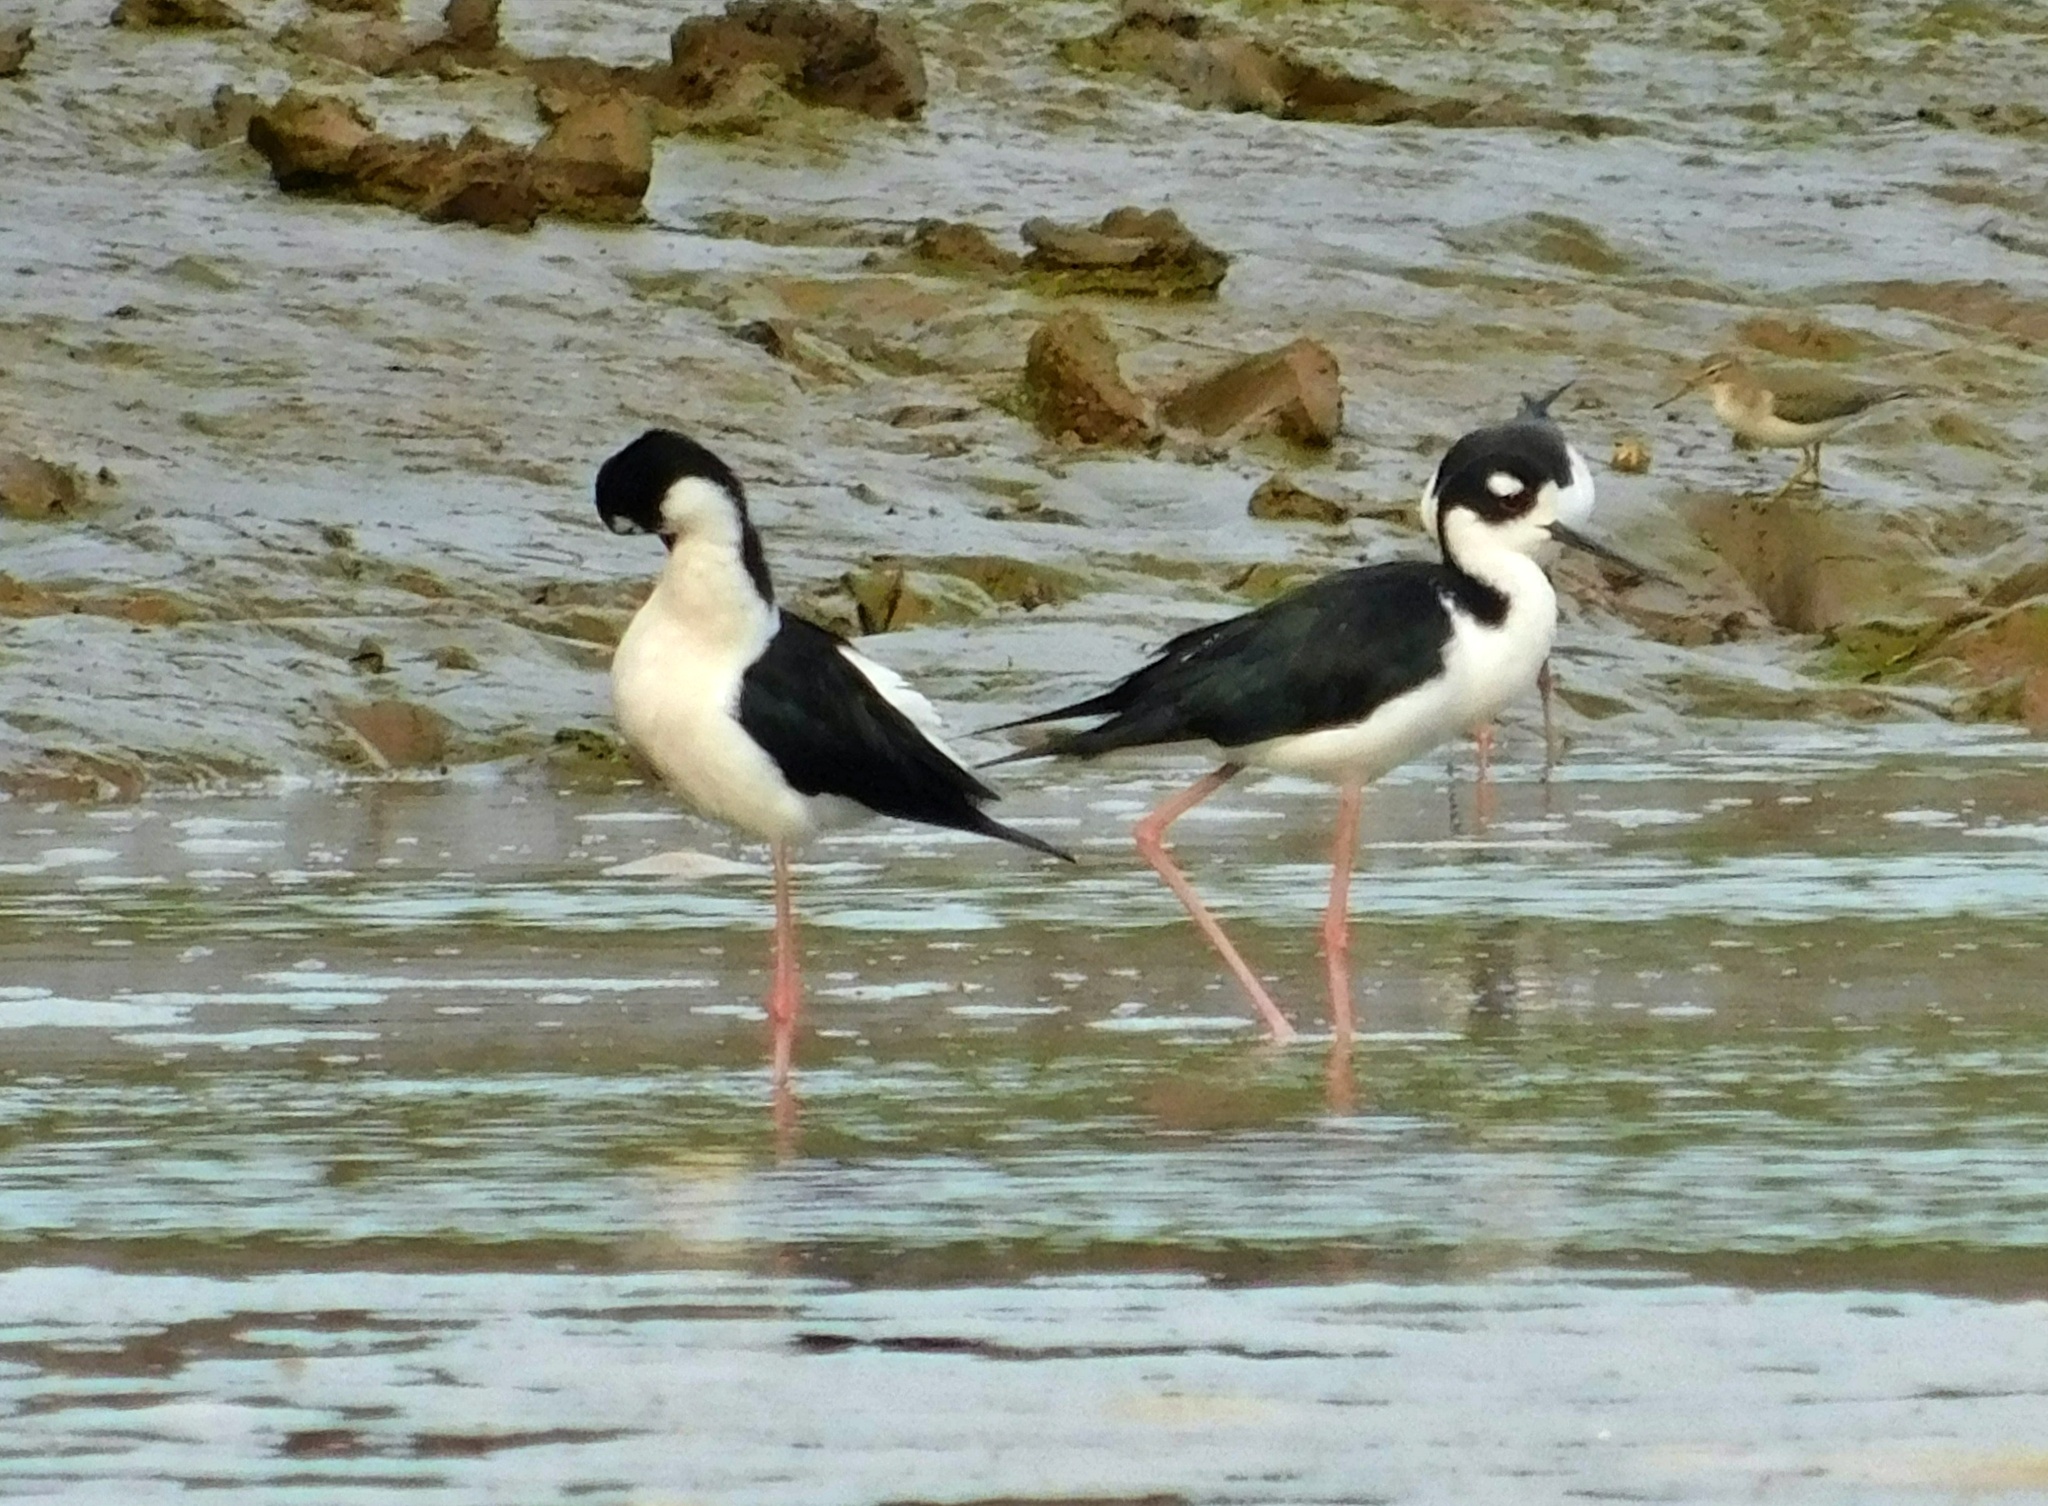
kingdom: Animalia
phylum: Chordata
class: Aves
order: Charadriiformes
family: Recurvirostridae
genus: Himantopus
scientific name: Himantopus mexicanus
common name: Black-necked stilt
